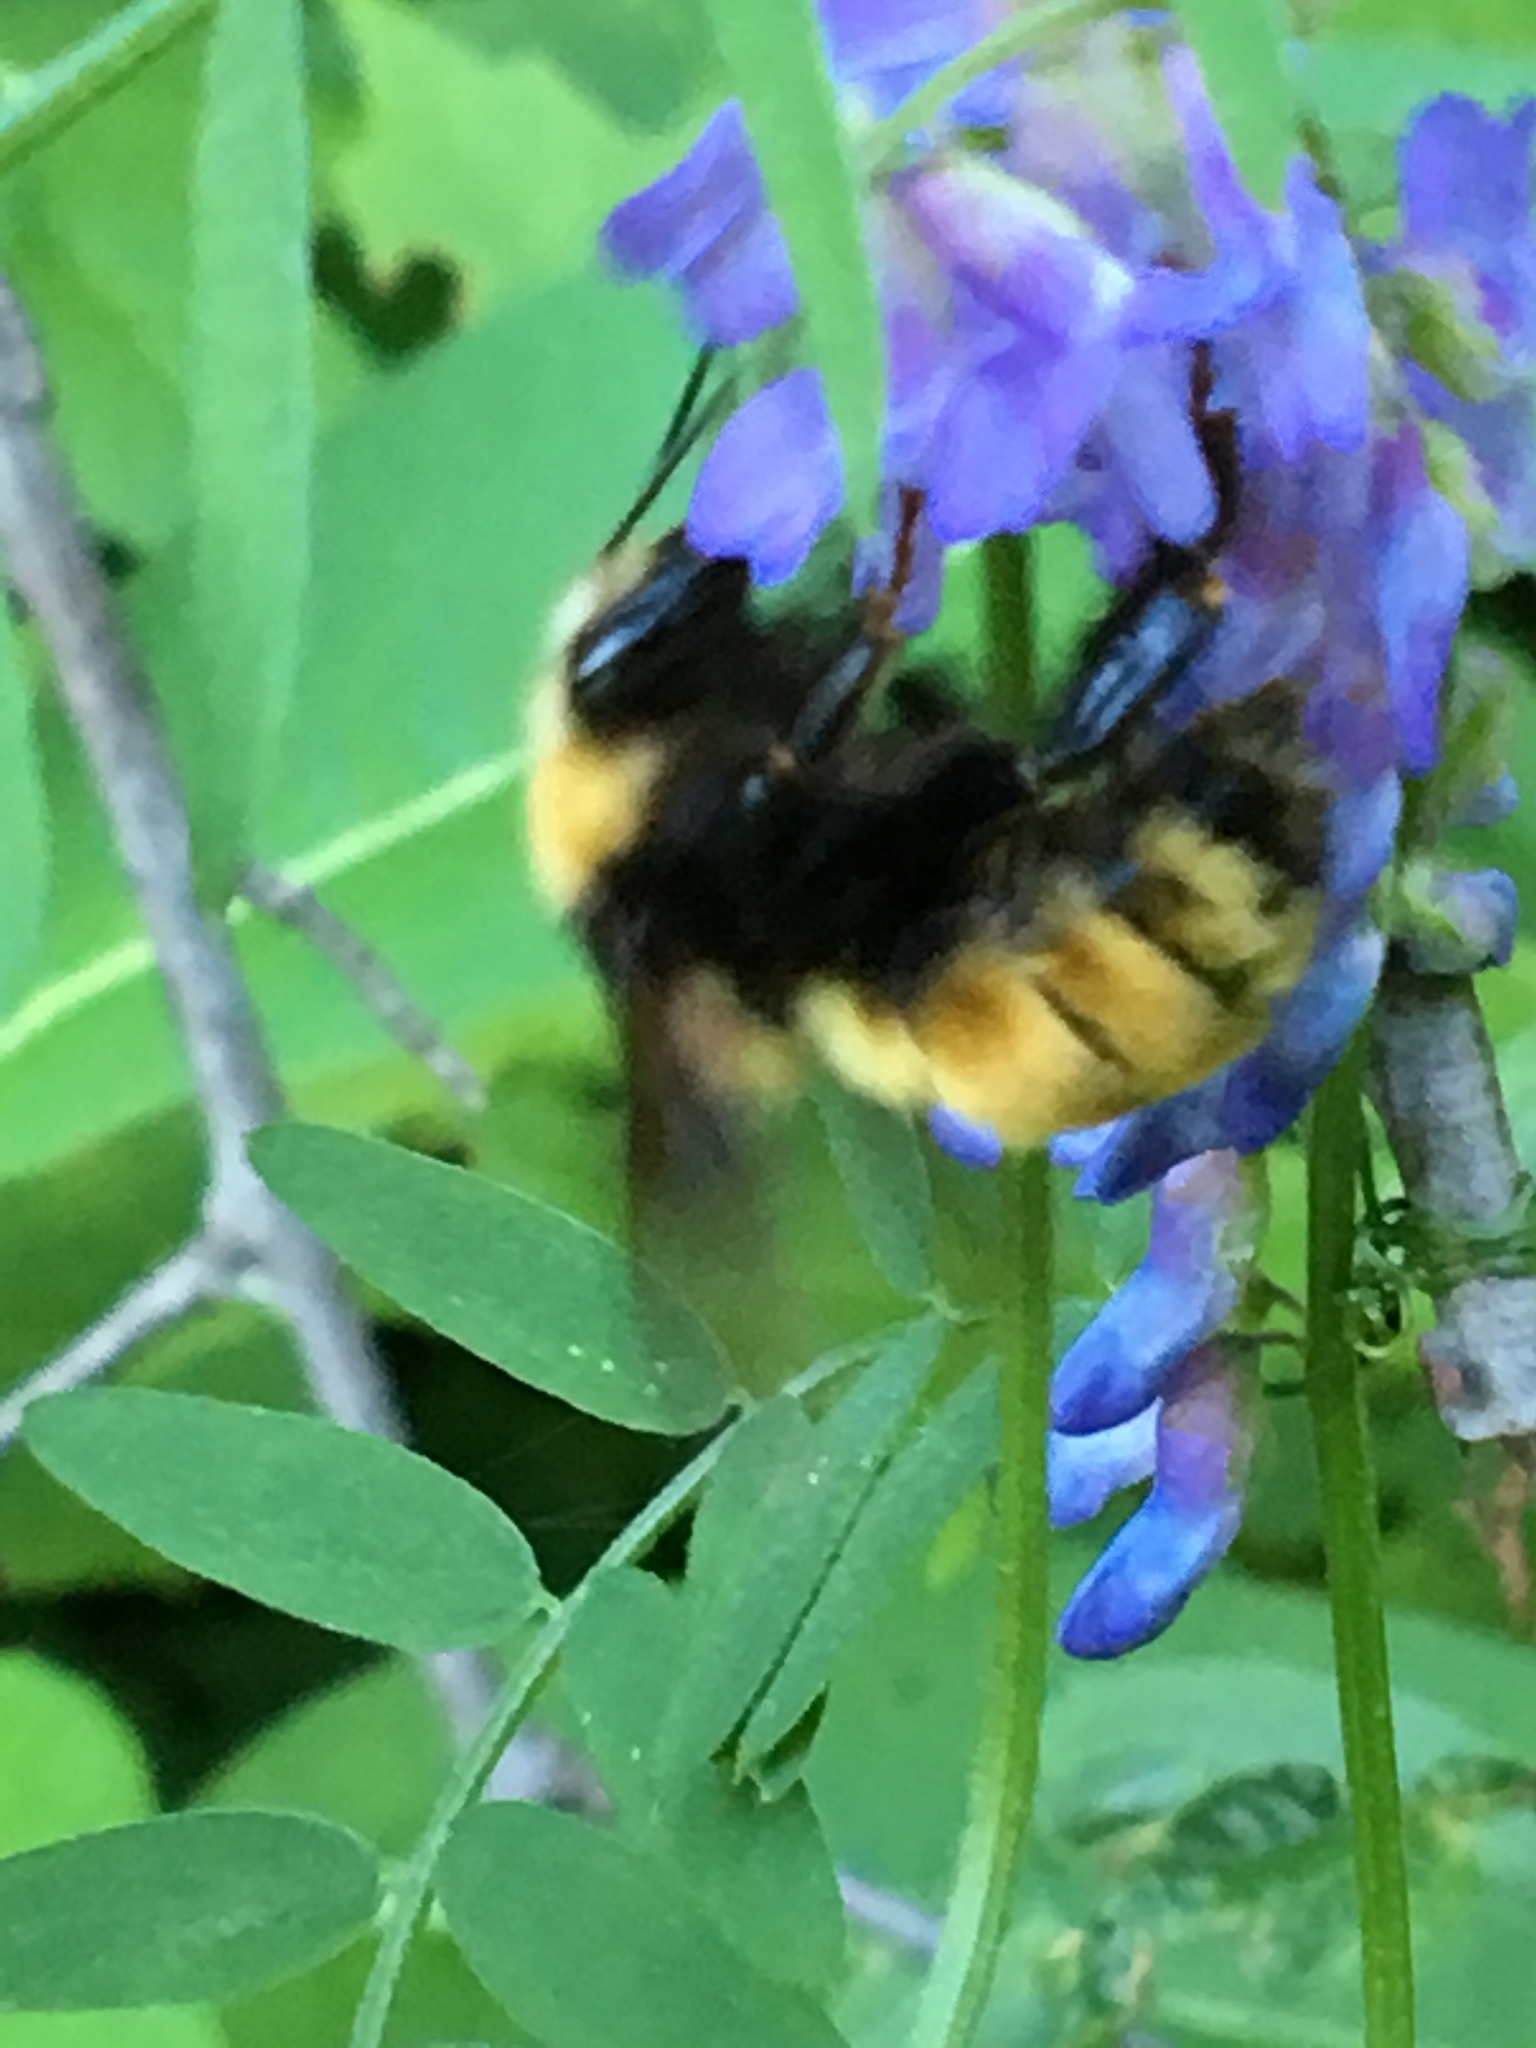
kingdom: Animalia
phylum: Arthropoda
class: Insecta
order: Hymenoptera
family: Apidae
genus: Bombus
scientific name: Bombus borealis
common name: Northern amber bumble bee
